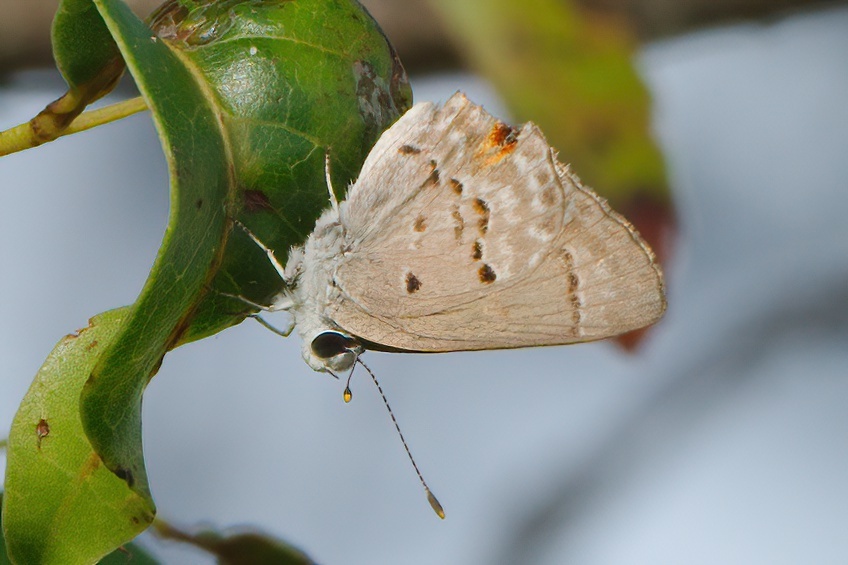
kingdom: Animalia
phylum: Arthropoda
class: Insecta
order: Lepidoptera
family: Lycaenidae
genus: Callicista
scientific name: Callicista columella
